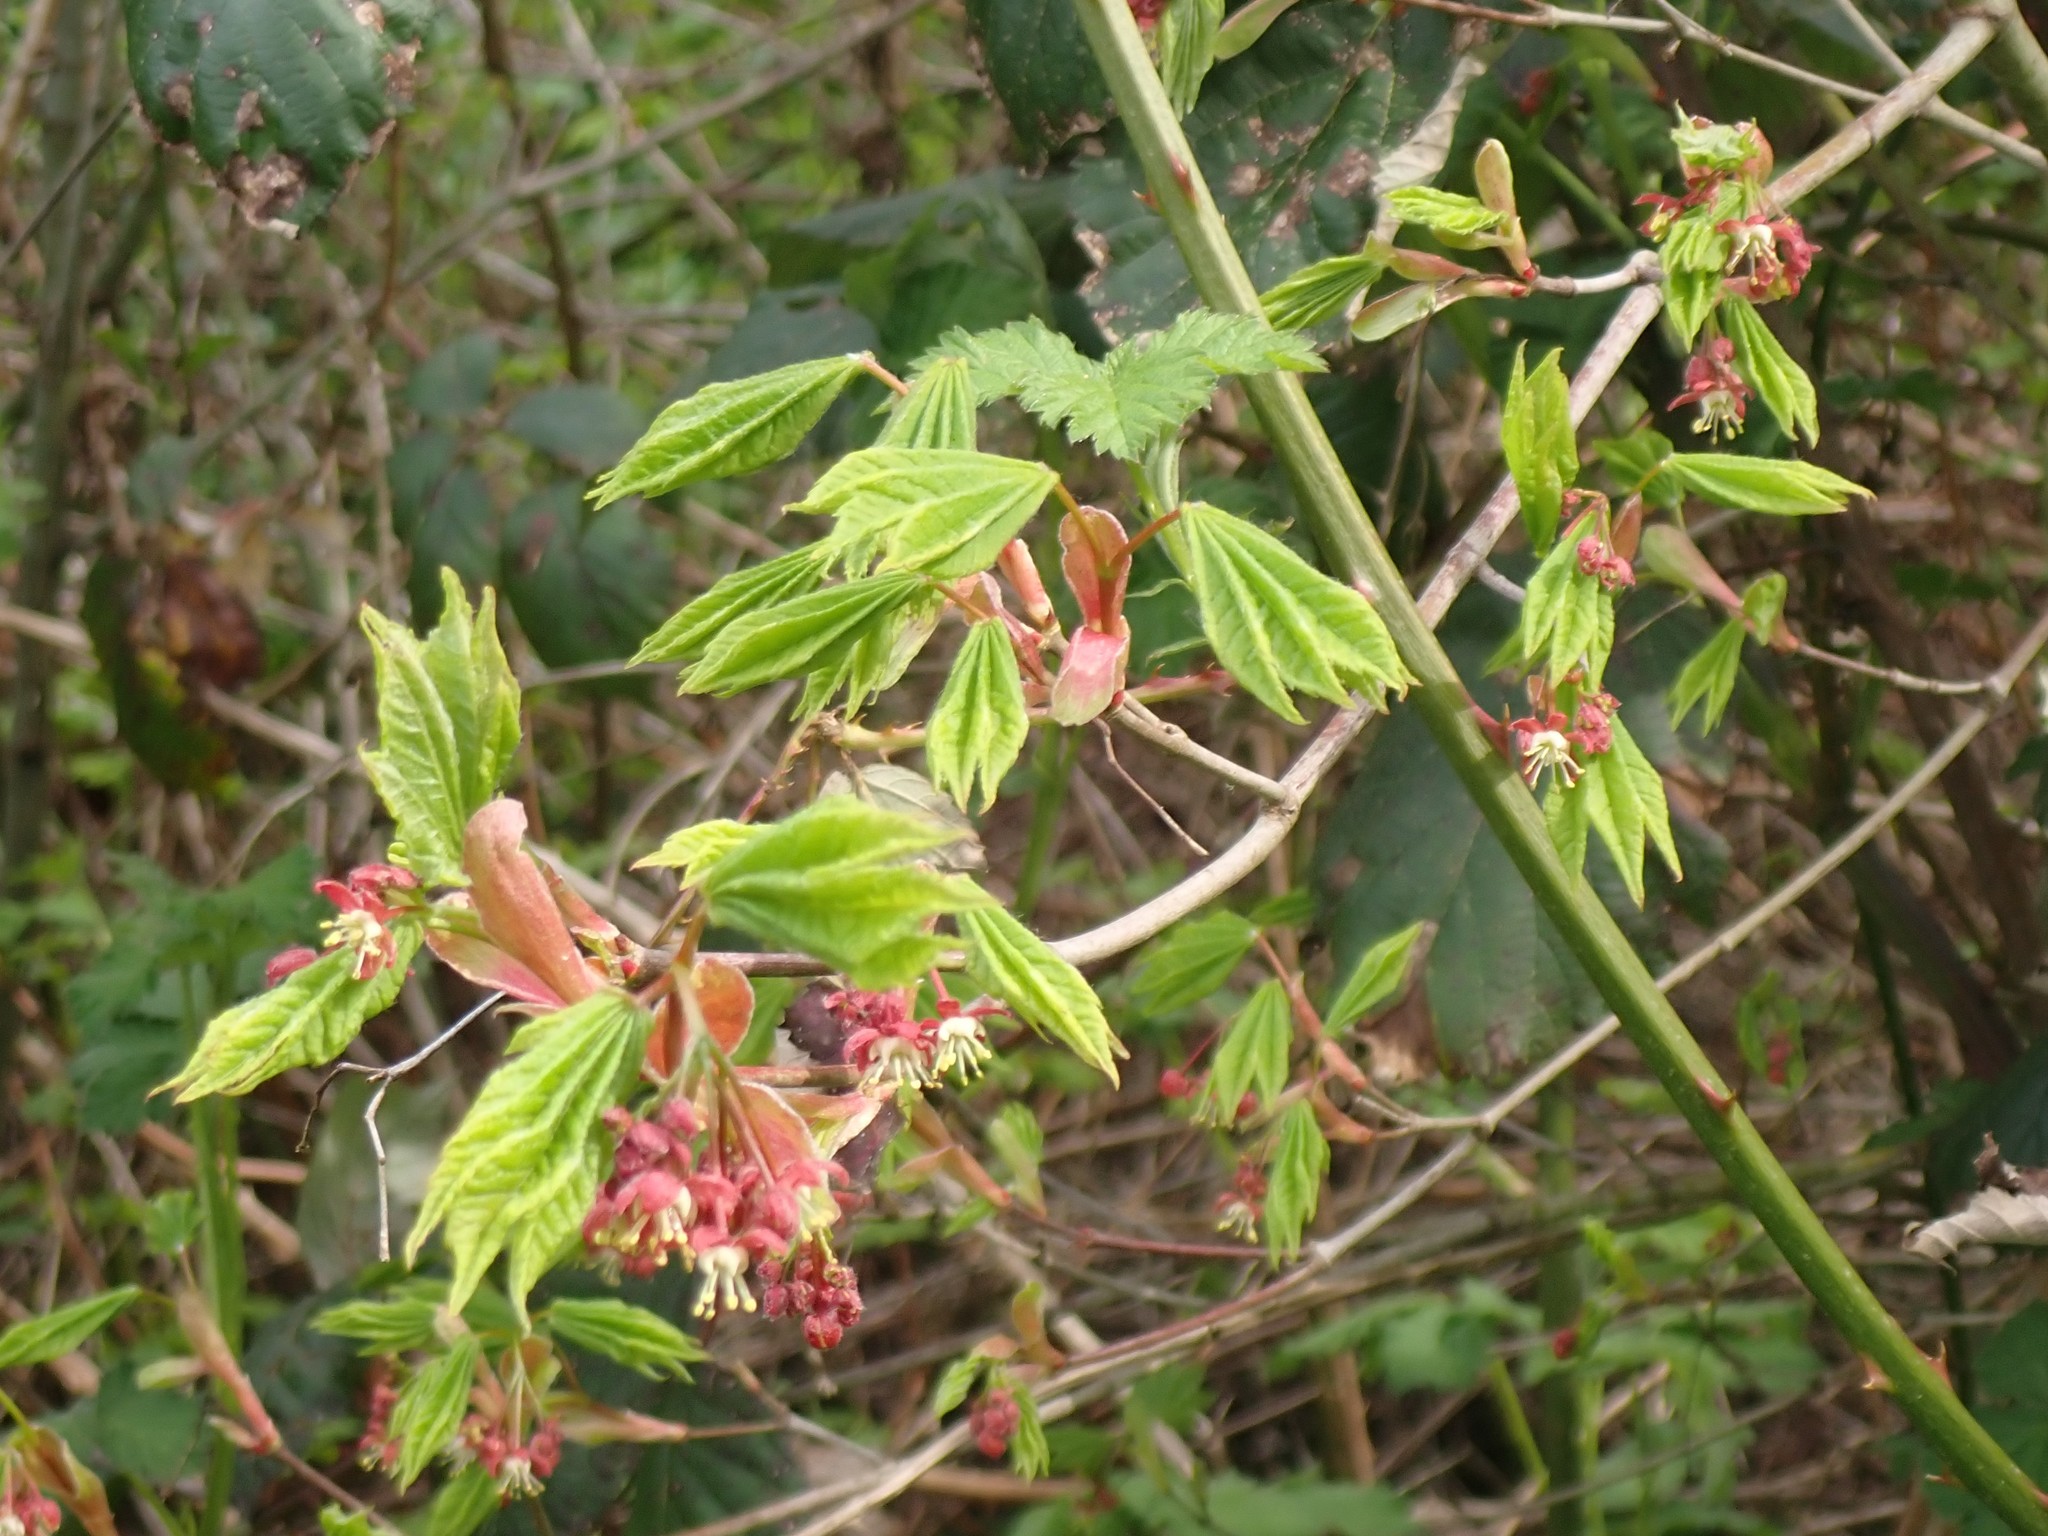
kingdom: Plantae
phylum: Tracheophyta
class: Magnoliopsida
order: Sapindales
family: Sapindaceae
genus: Acer
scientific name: Acer circinatum
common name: Vine maple
